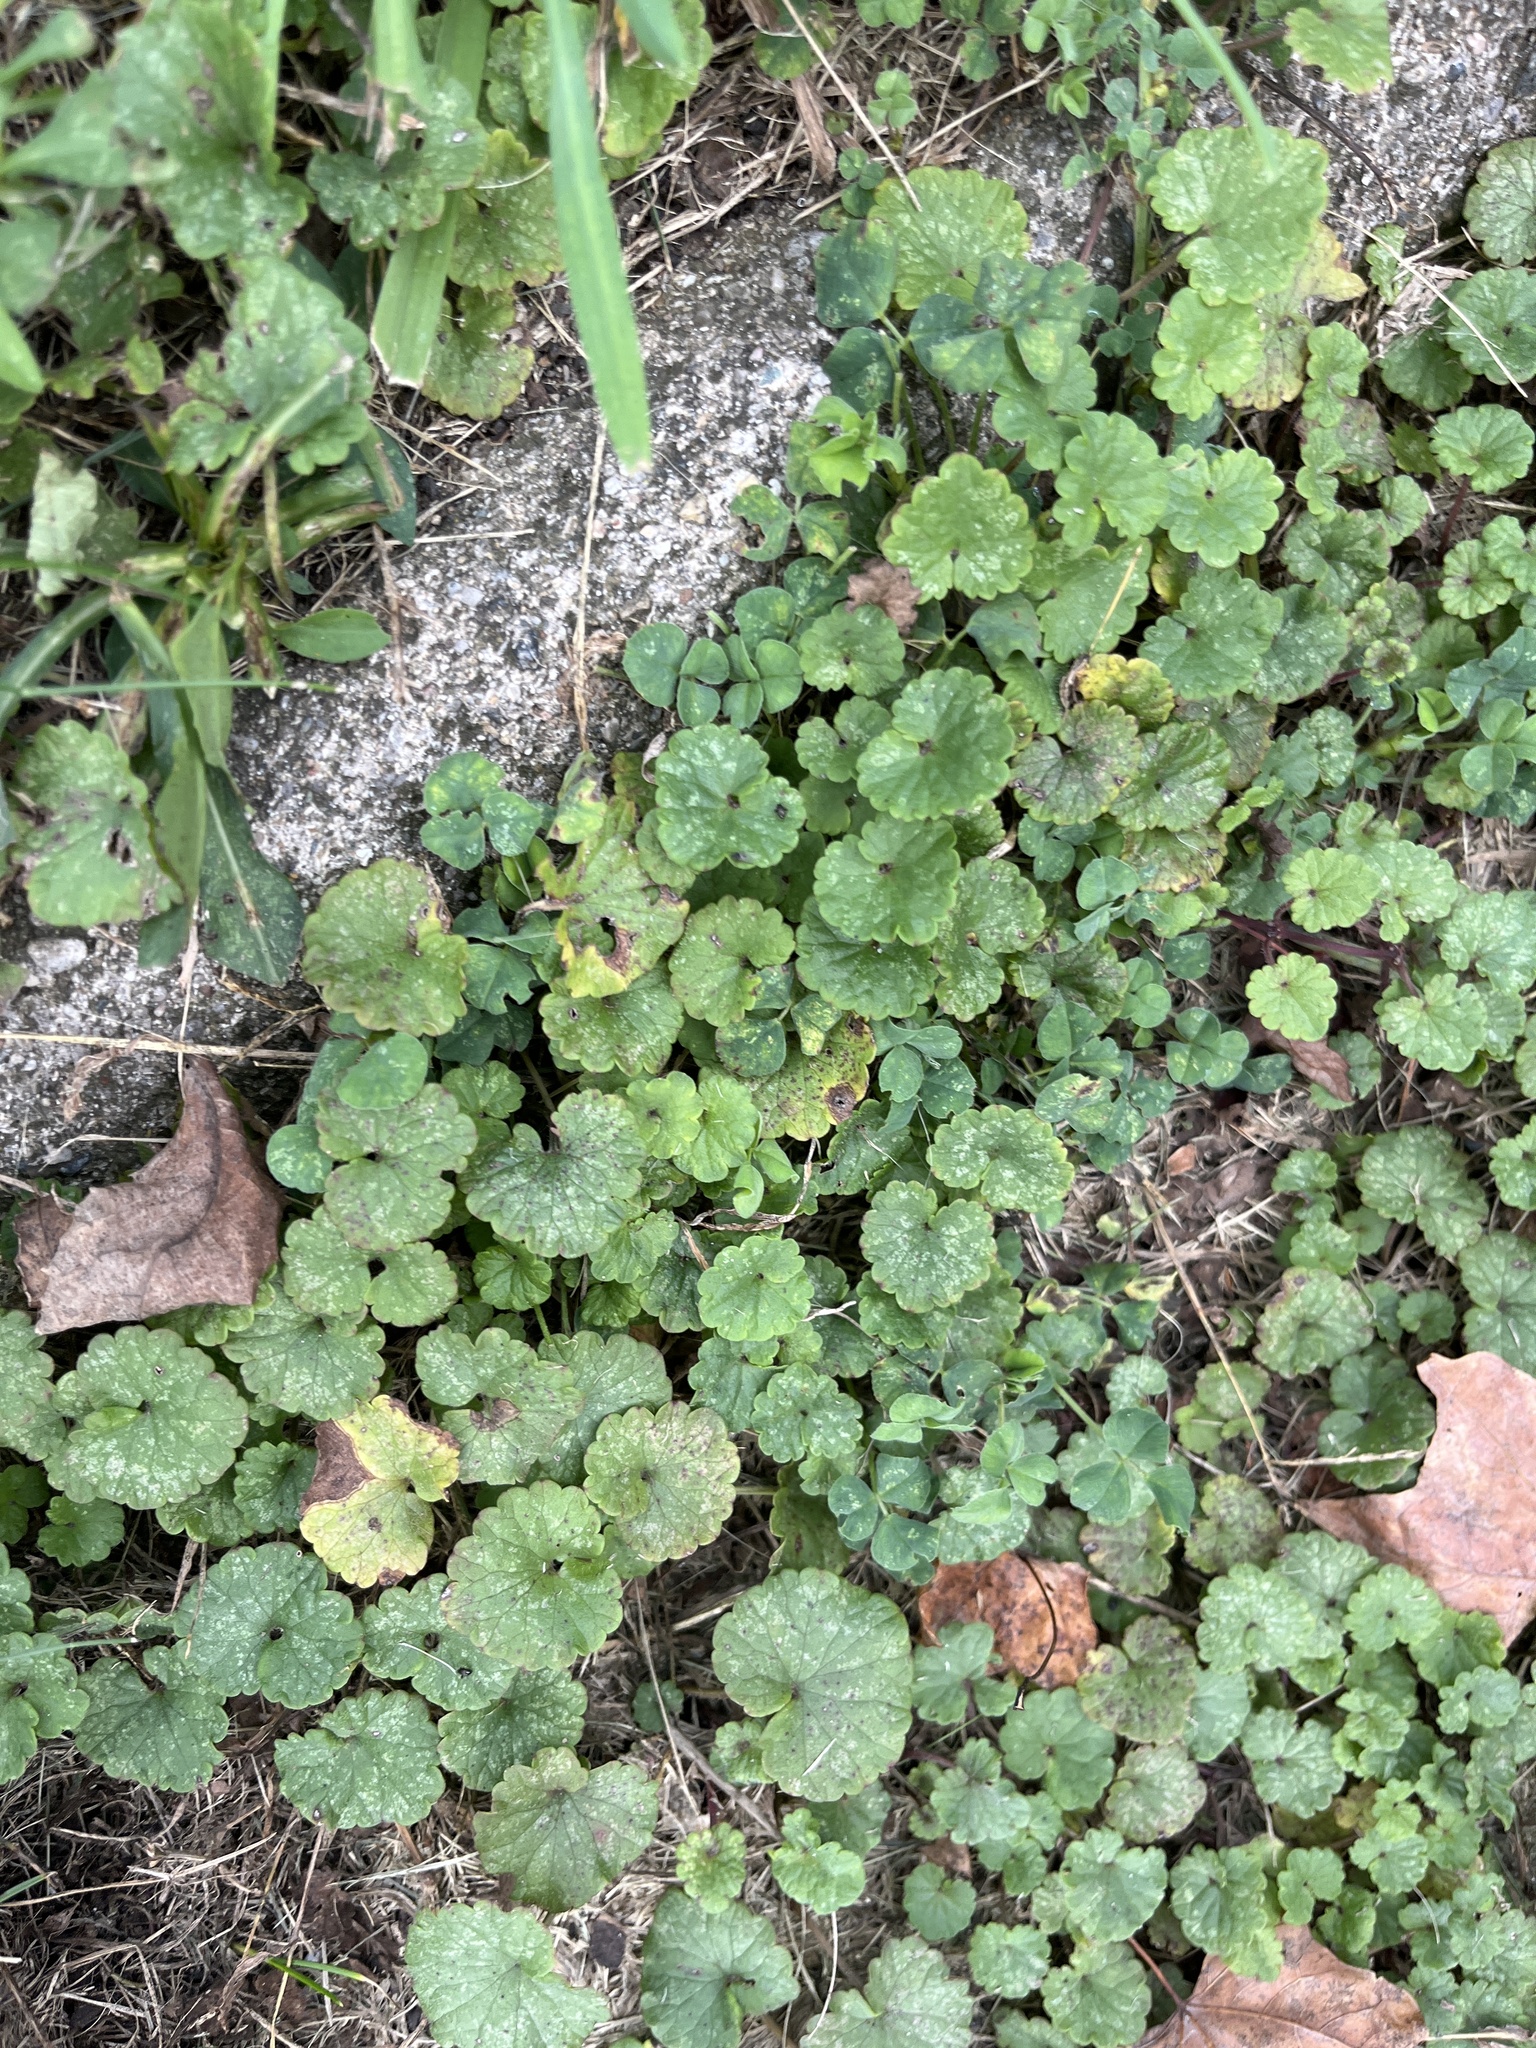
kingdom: Plantae
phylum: Tracheophyta
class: Magnoliopsida
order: Lamiales
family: Lamiaceae
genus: Glechoma
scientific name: Glechoma hederacea
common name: Ground ivy
